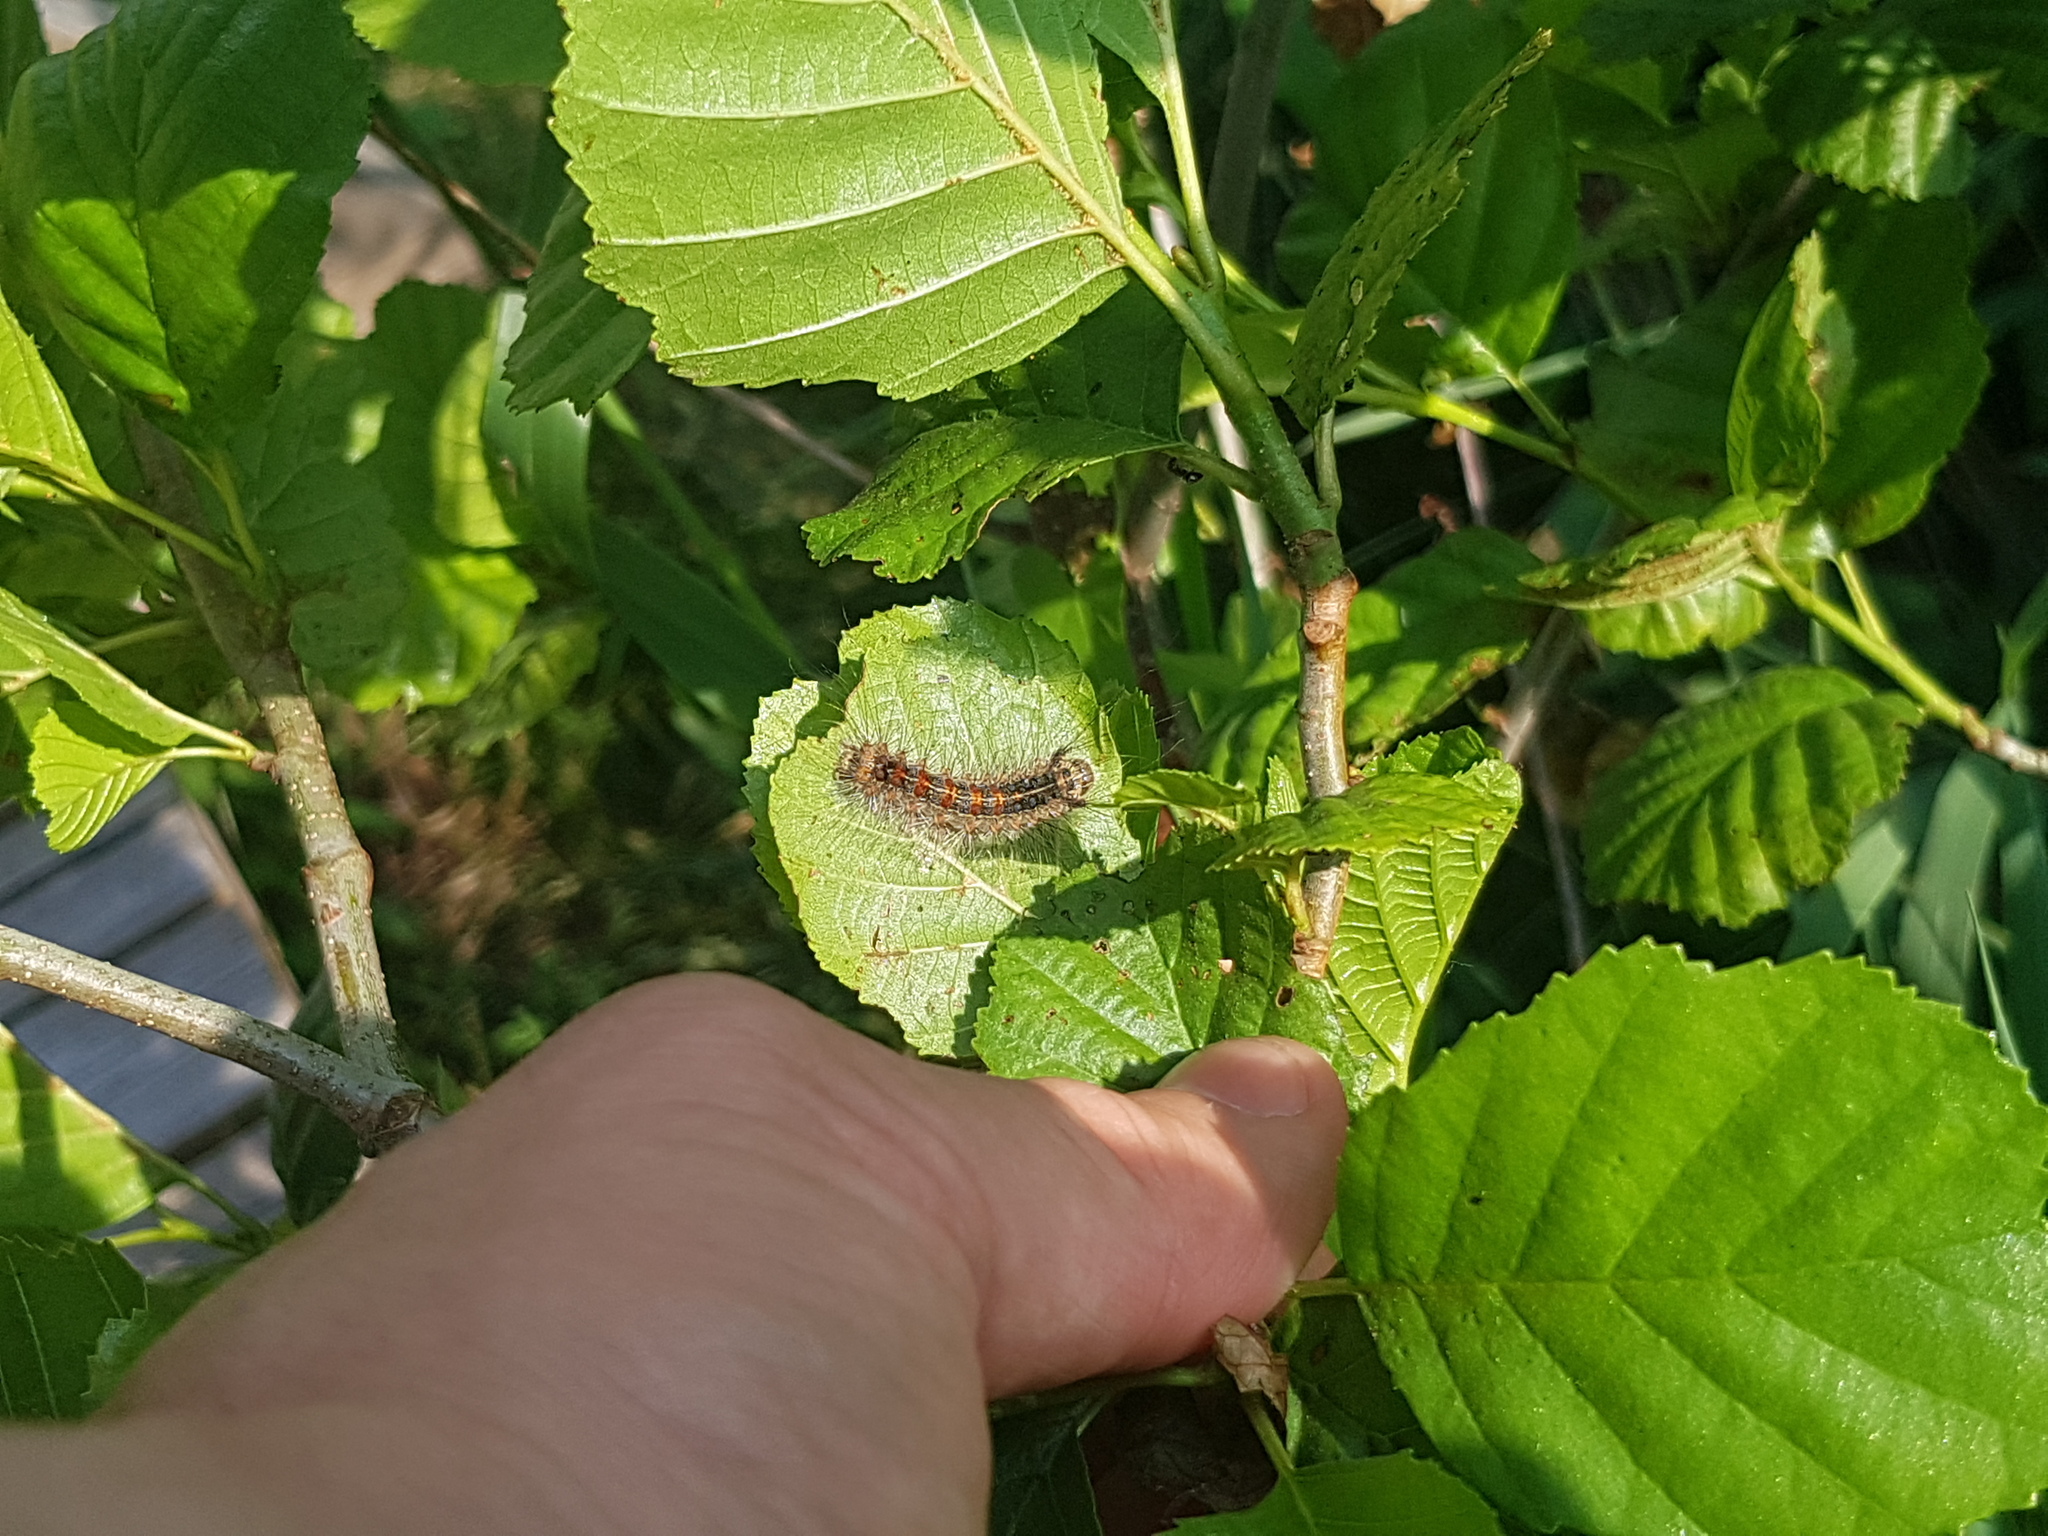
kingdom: Animalia
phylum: Arthropoda
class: Insecta
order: Lepidoptera
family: Erebidae
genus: Lymantria
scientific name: Lymantria dispar
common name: Gypsy moth
